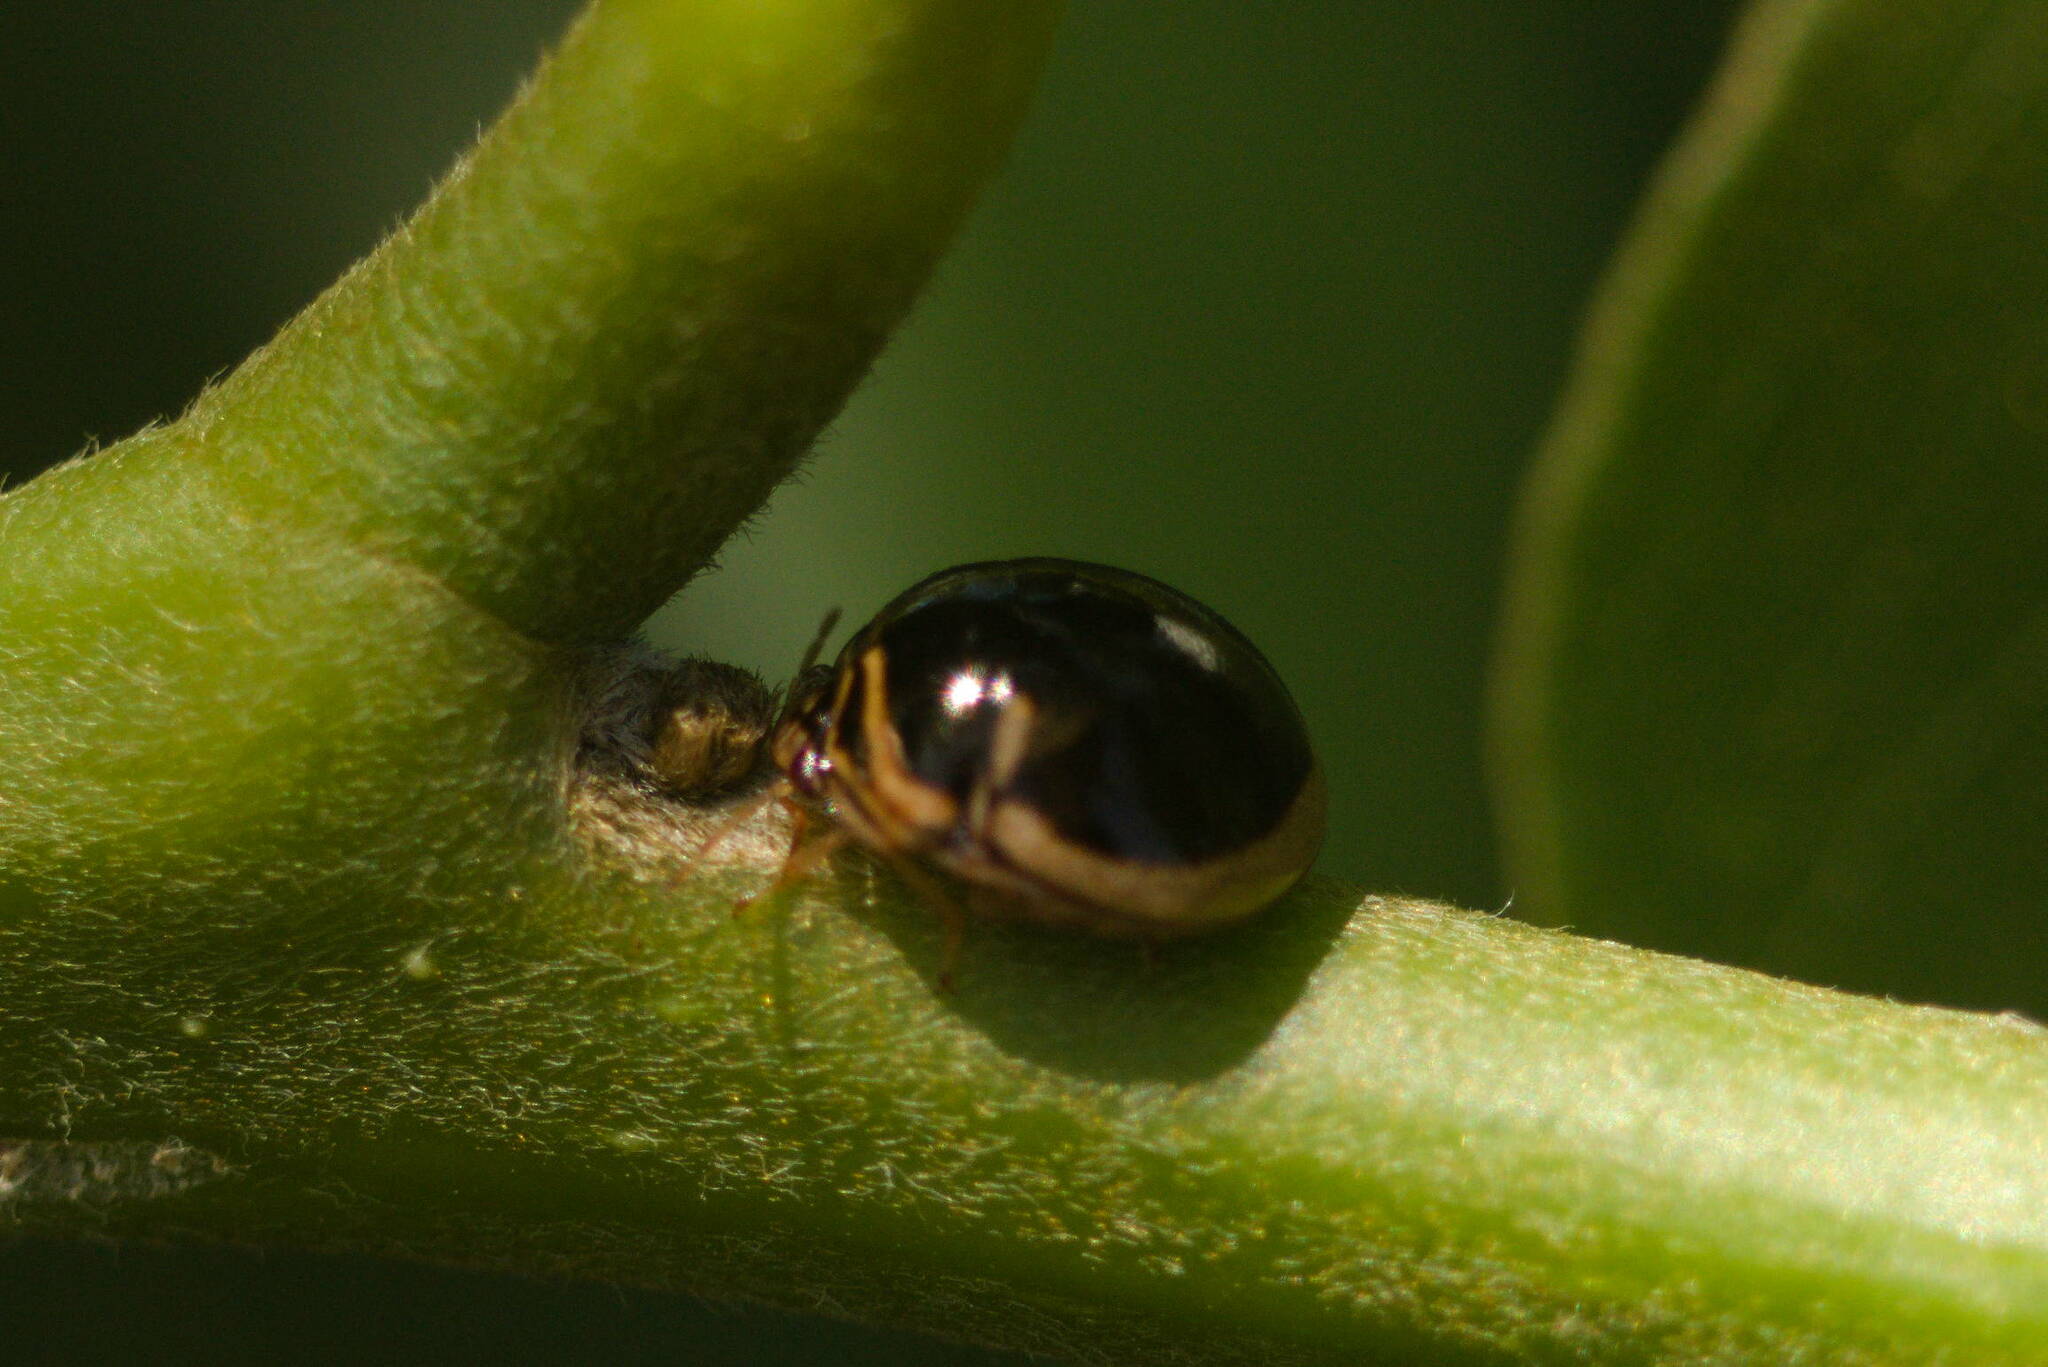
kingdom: Animalia
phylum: Arthropoda
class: Insecta
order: Hemiptera
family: Plataspidae
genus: Coptosoma
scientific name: Coptosoma
